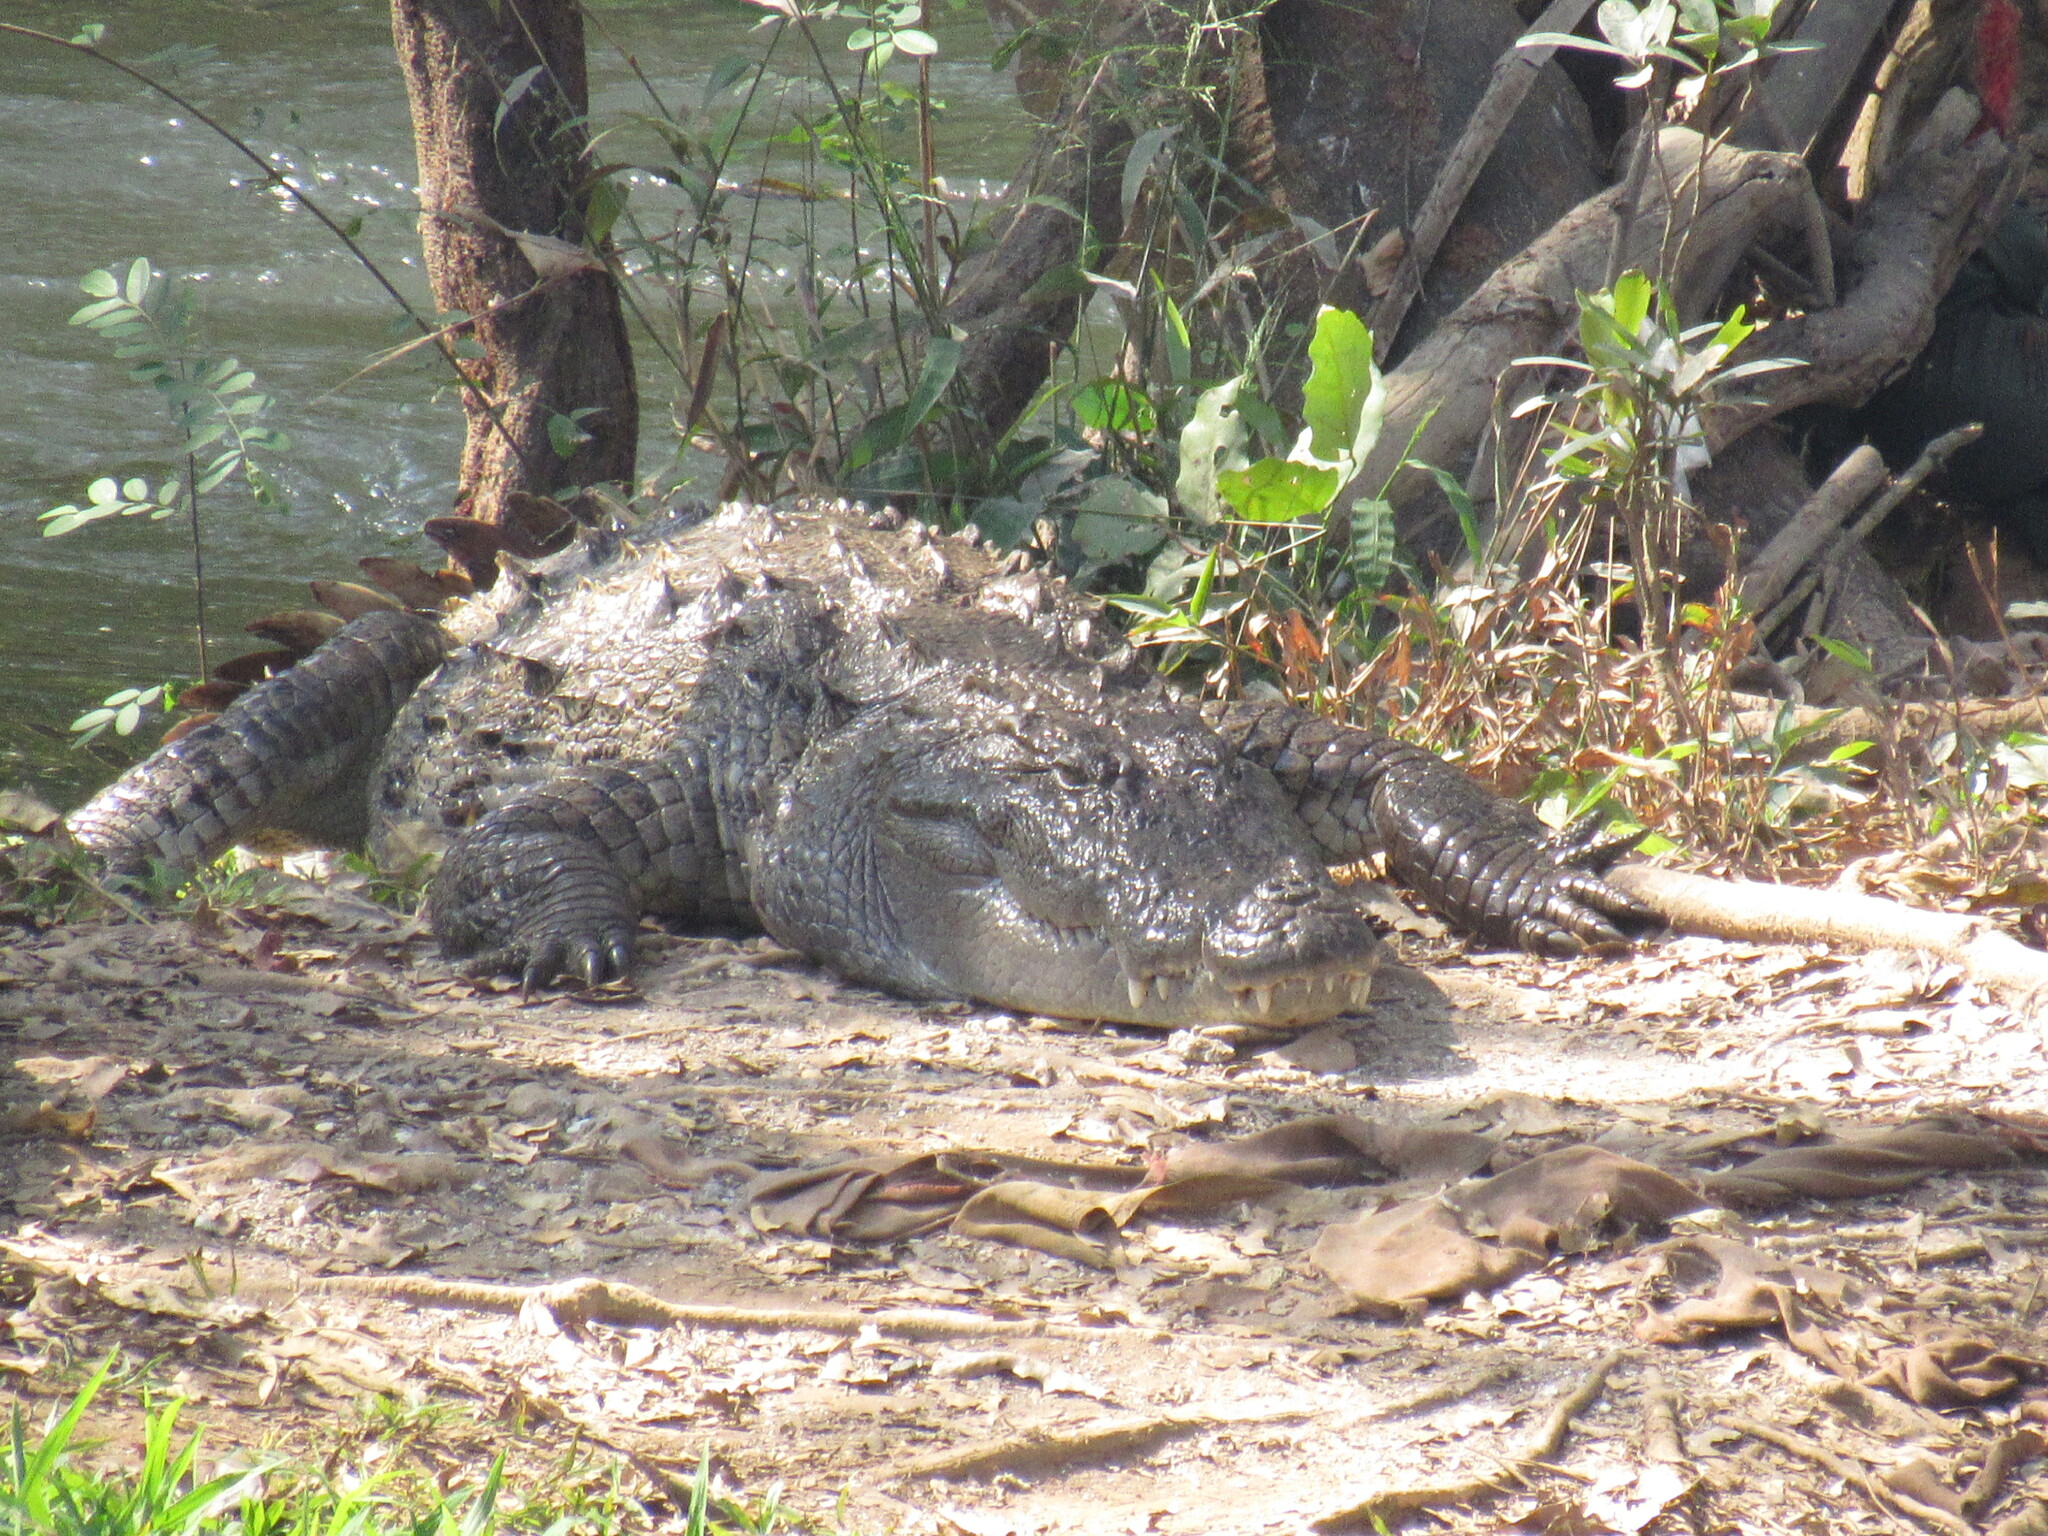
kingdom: Animalia
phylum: Chordata
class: Crocodylia
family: Crocodylidae
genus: Crocodylus
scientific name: Crocodylus palustris
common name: Mugger crocodile
